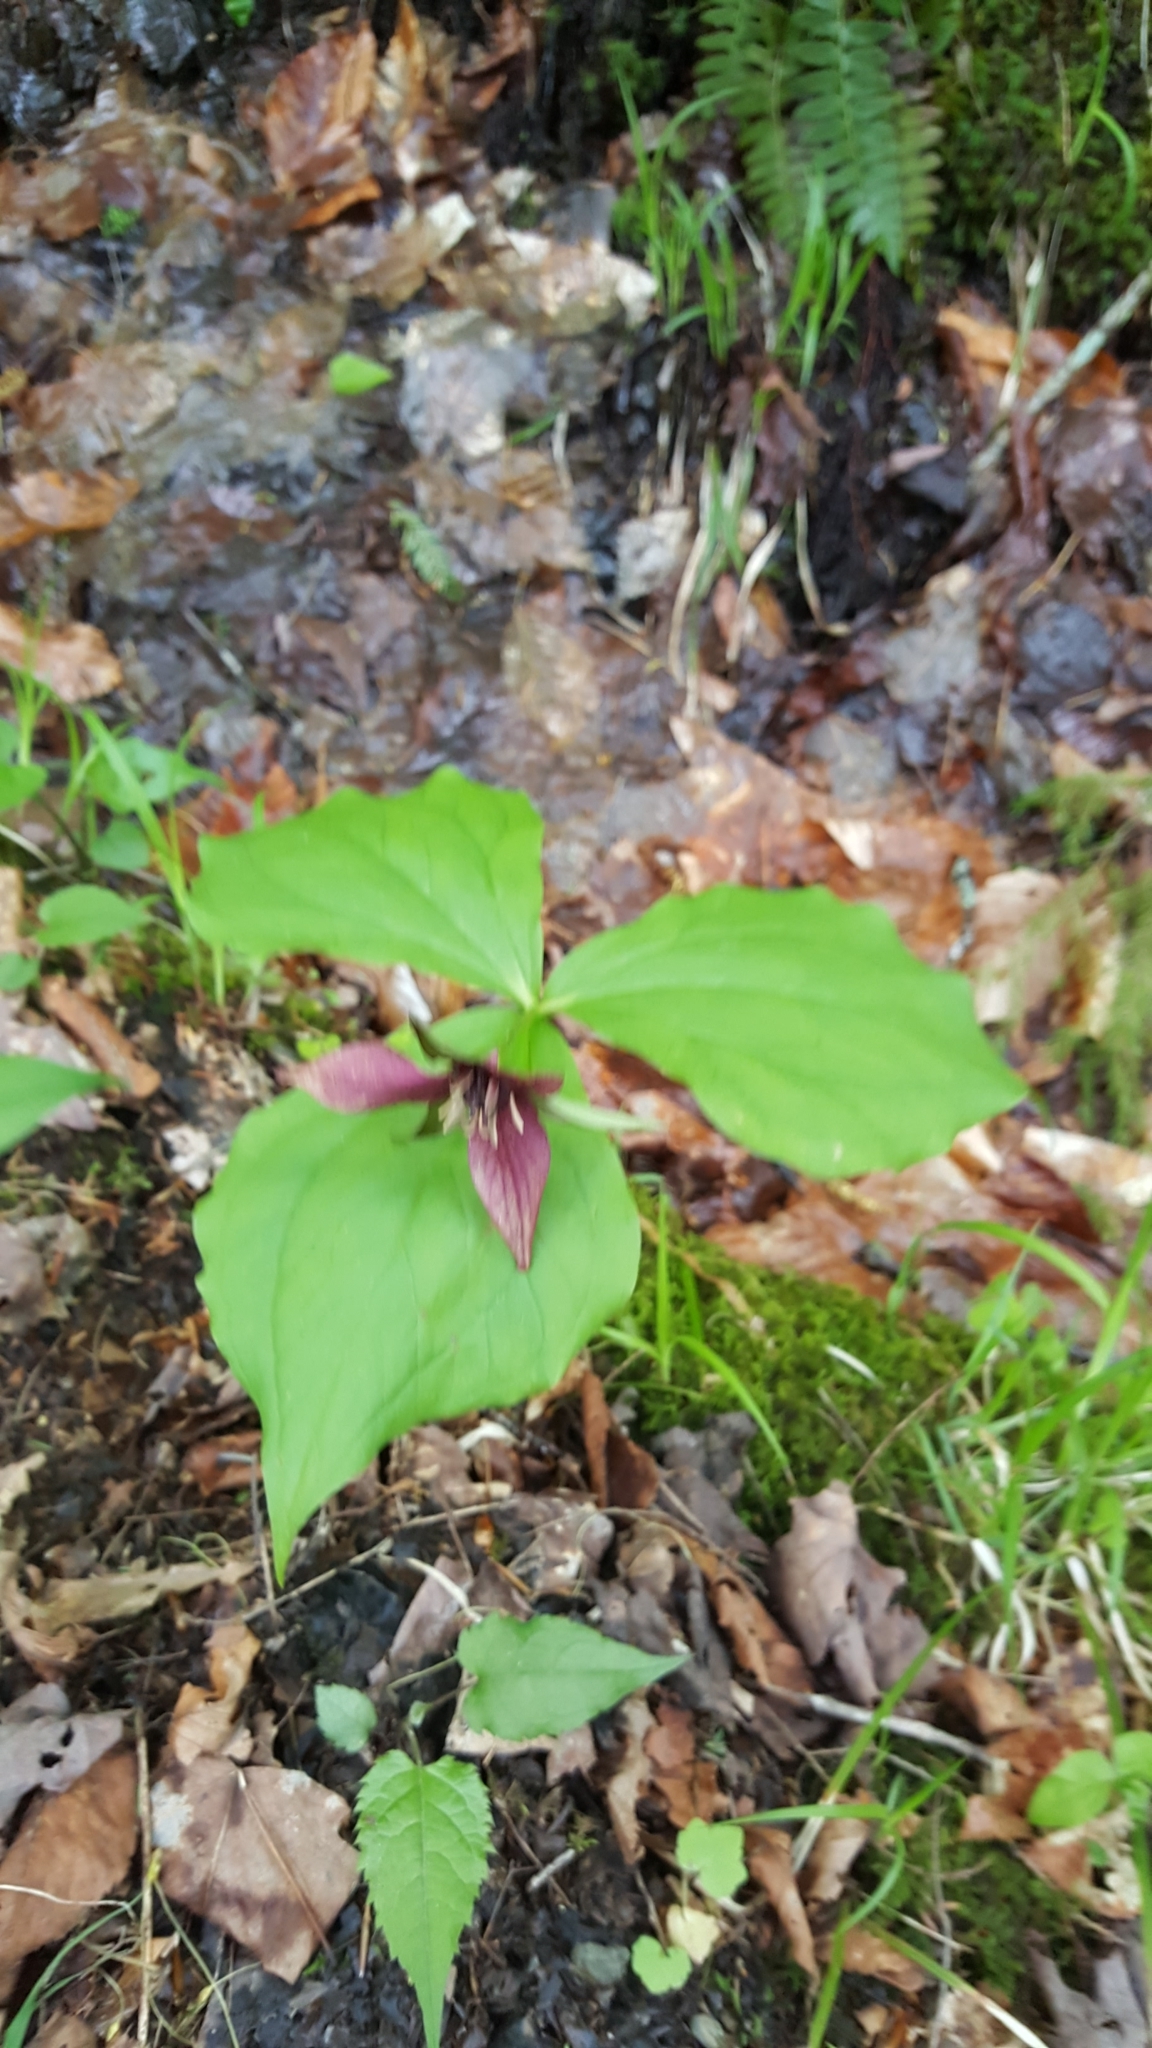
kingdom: Plantae
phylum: Tracheophyta
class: Liliopsida
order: Liliales
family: Melanthiaceae
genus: Trillium
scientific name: Trillium erectum
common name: Purple trillium
